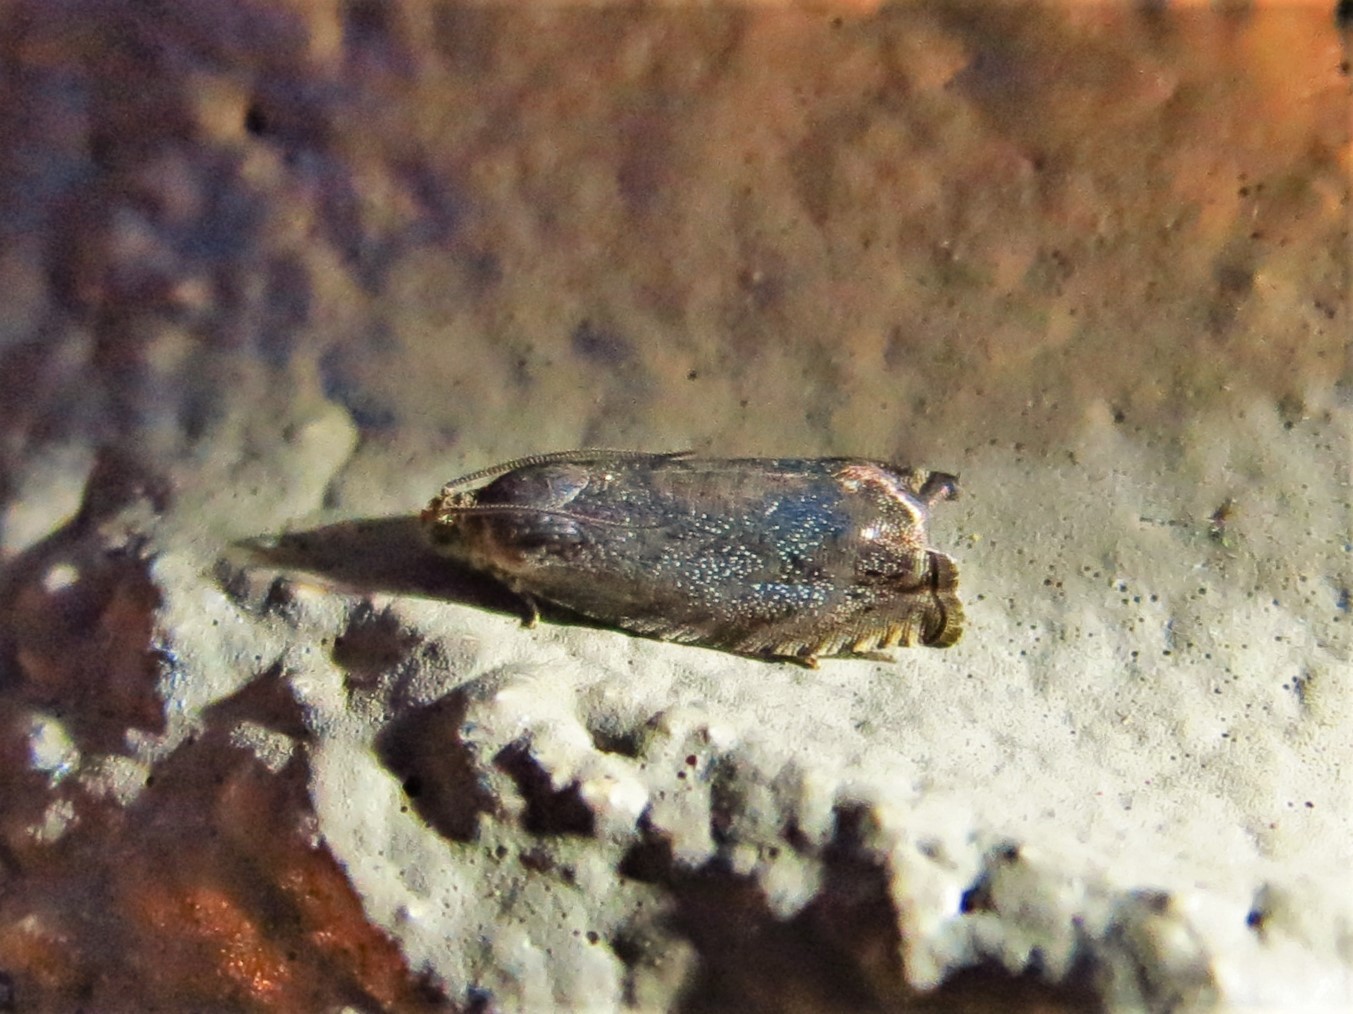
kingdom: Animalia
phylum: Arthropoda
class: Insecta
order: Lepidoptera
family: Tortricidae
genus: Cydia
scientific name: Cydia caryana
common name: Hickory shuckworm moth
